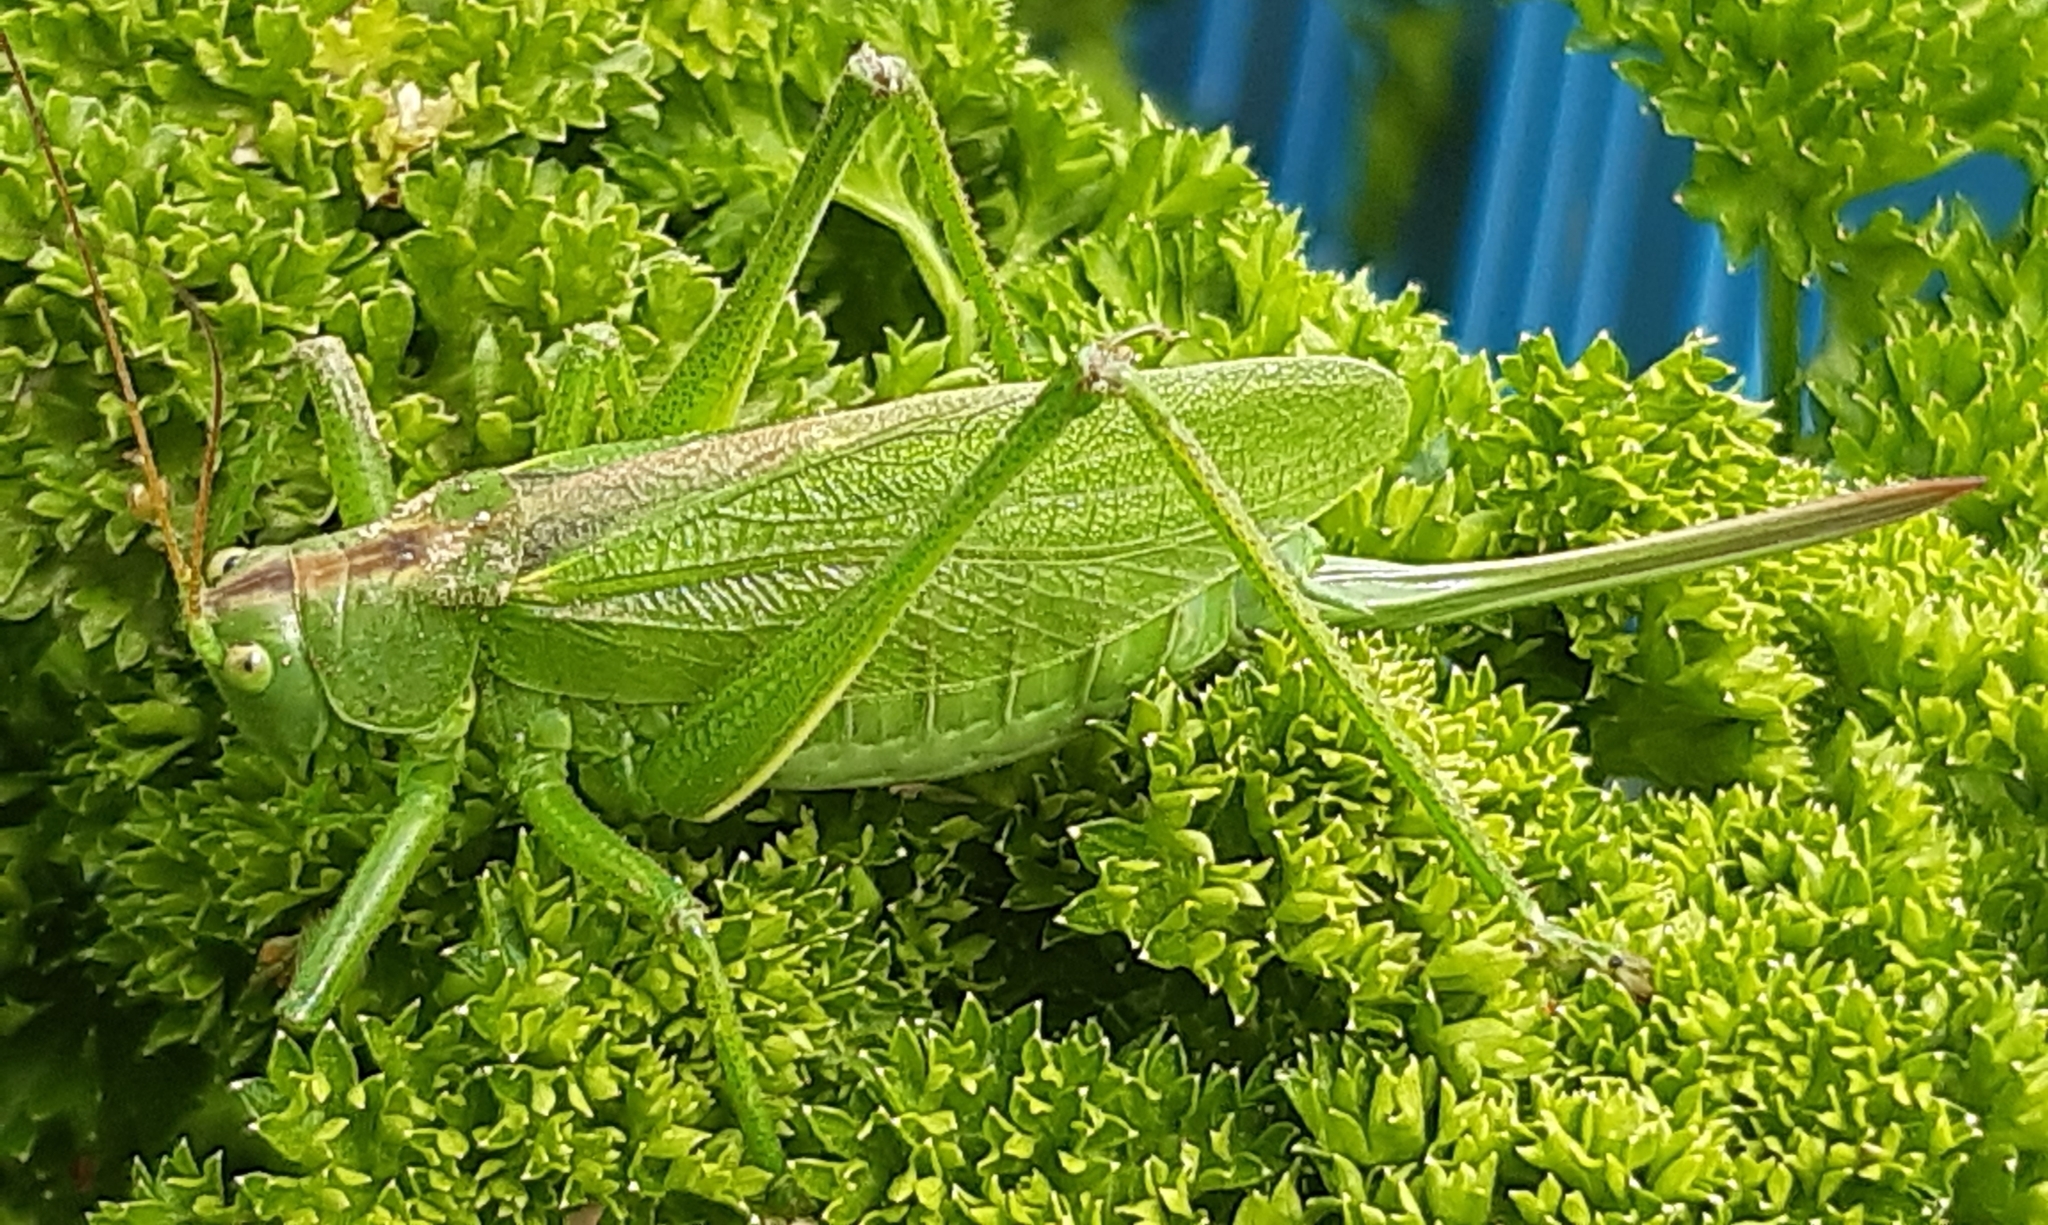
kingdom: Animalia
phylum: Arthropoda
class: Insecta
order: Orthoptera
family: Tettigoniidae
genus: Tettigonia
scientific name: Tettigonia cantans
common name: Upland green bush-cricket
